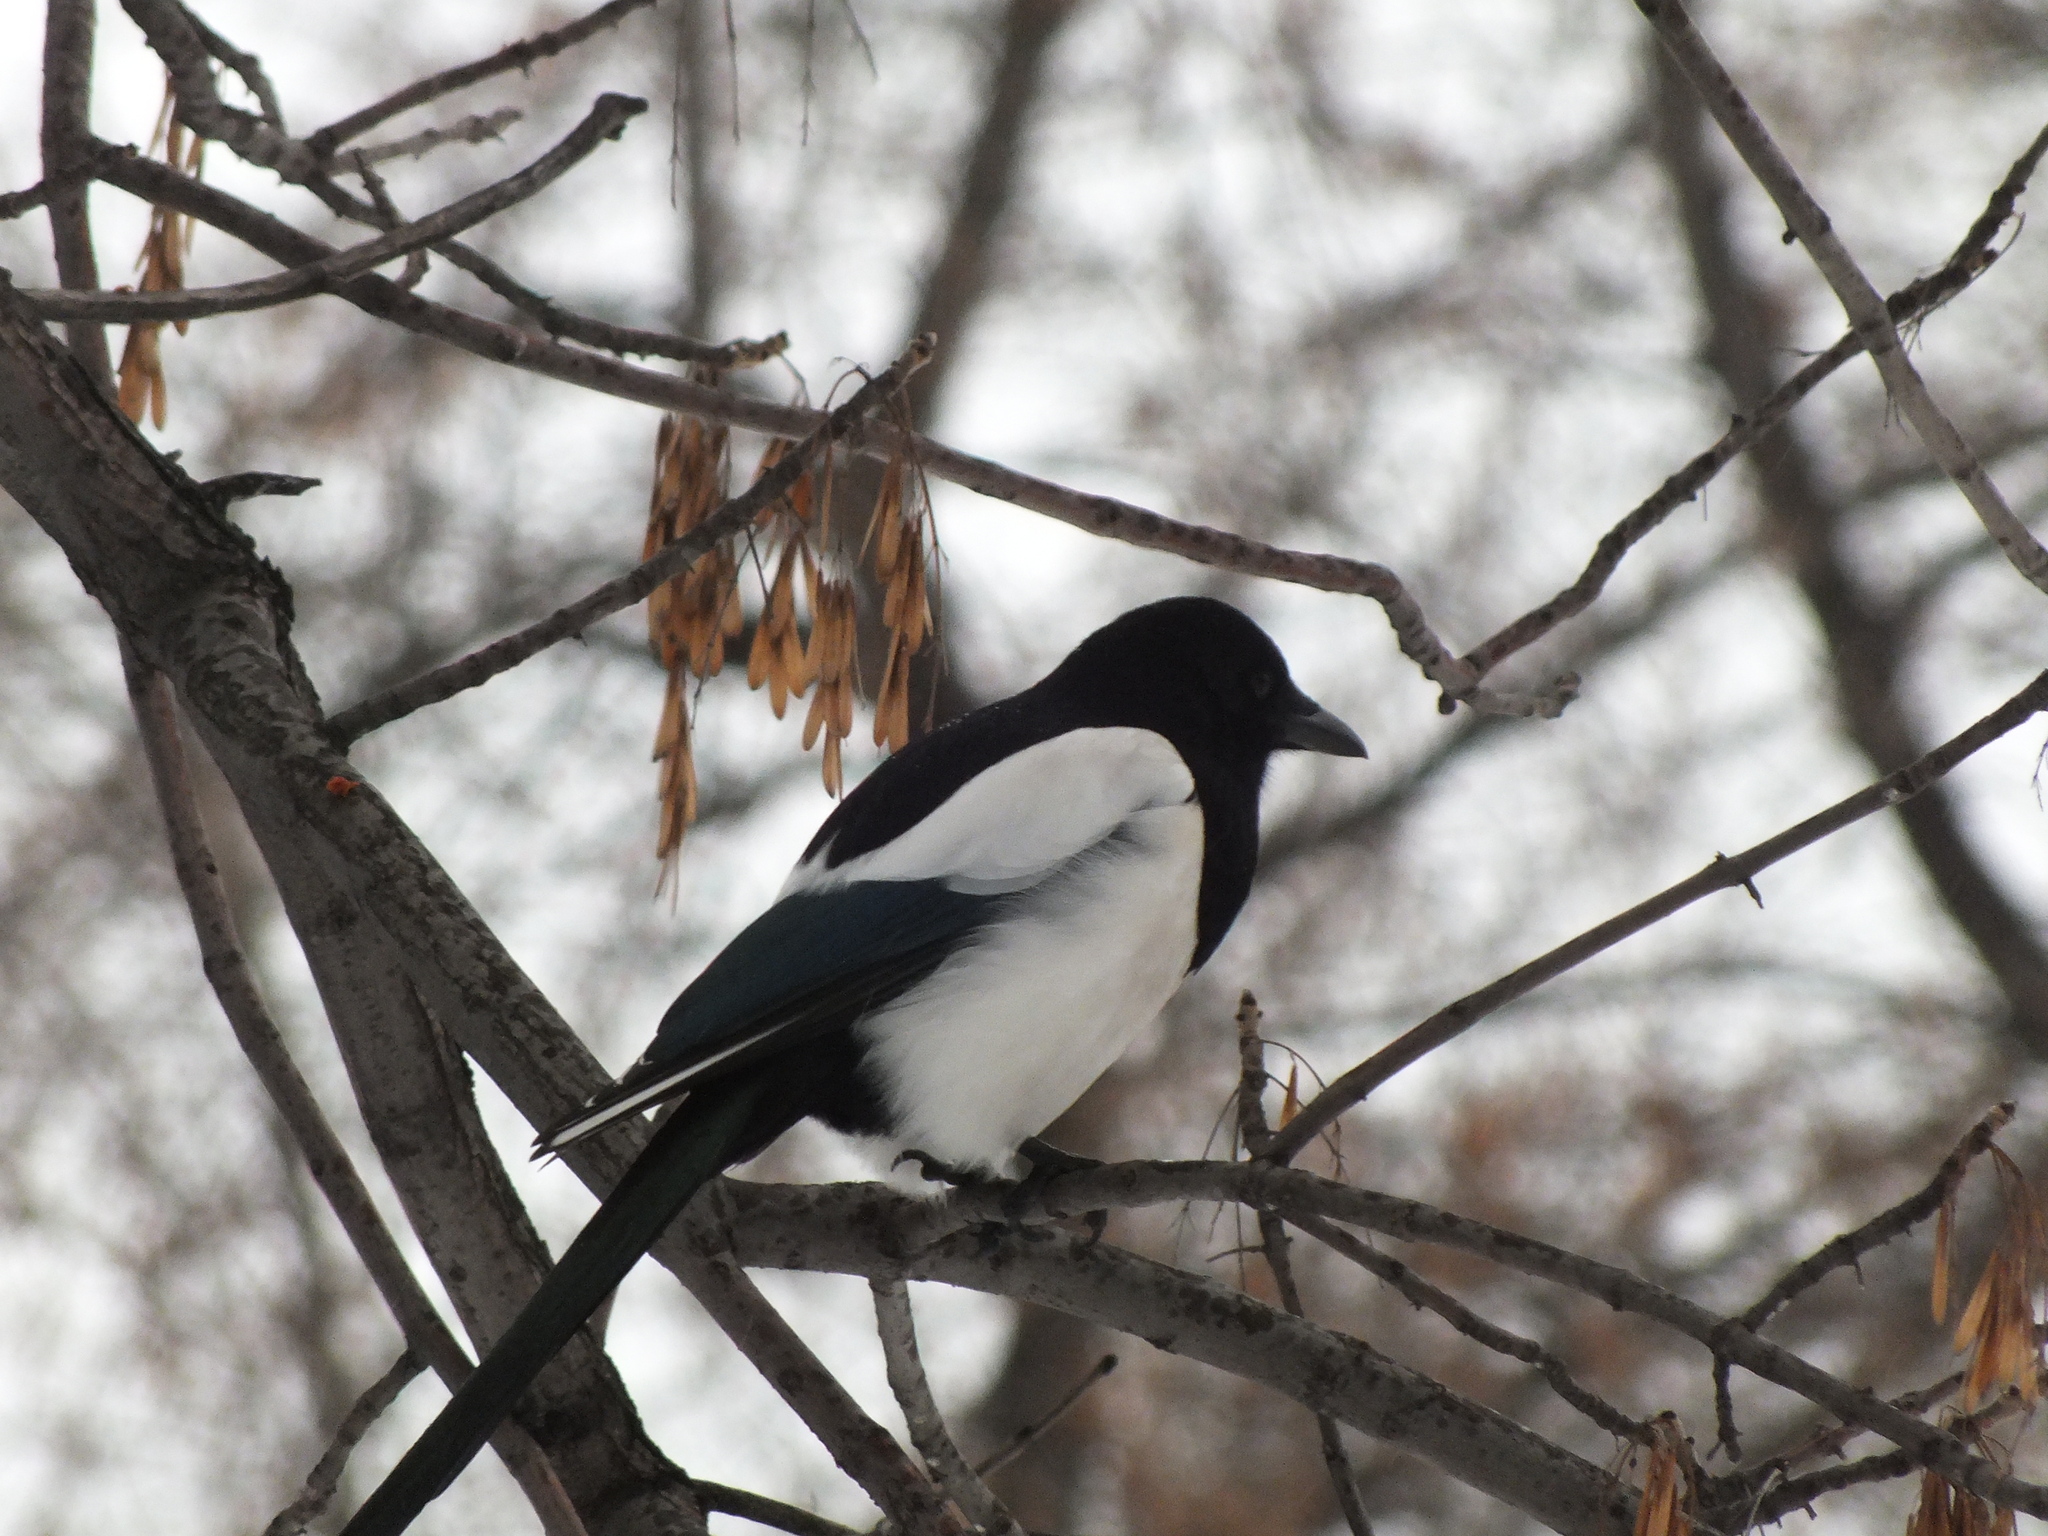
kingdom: Animalia
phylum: Chordata
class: Aves
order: Passeriformes
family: Corvidae
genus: Pica
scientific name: Pica pica
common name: Eurasian magpie
